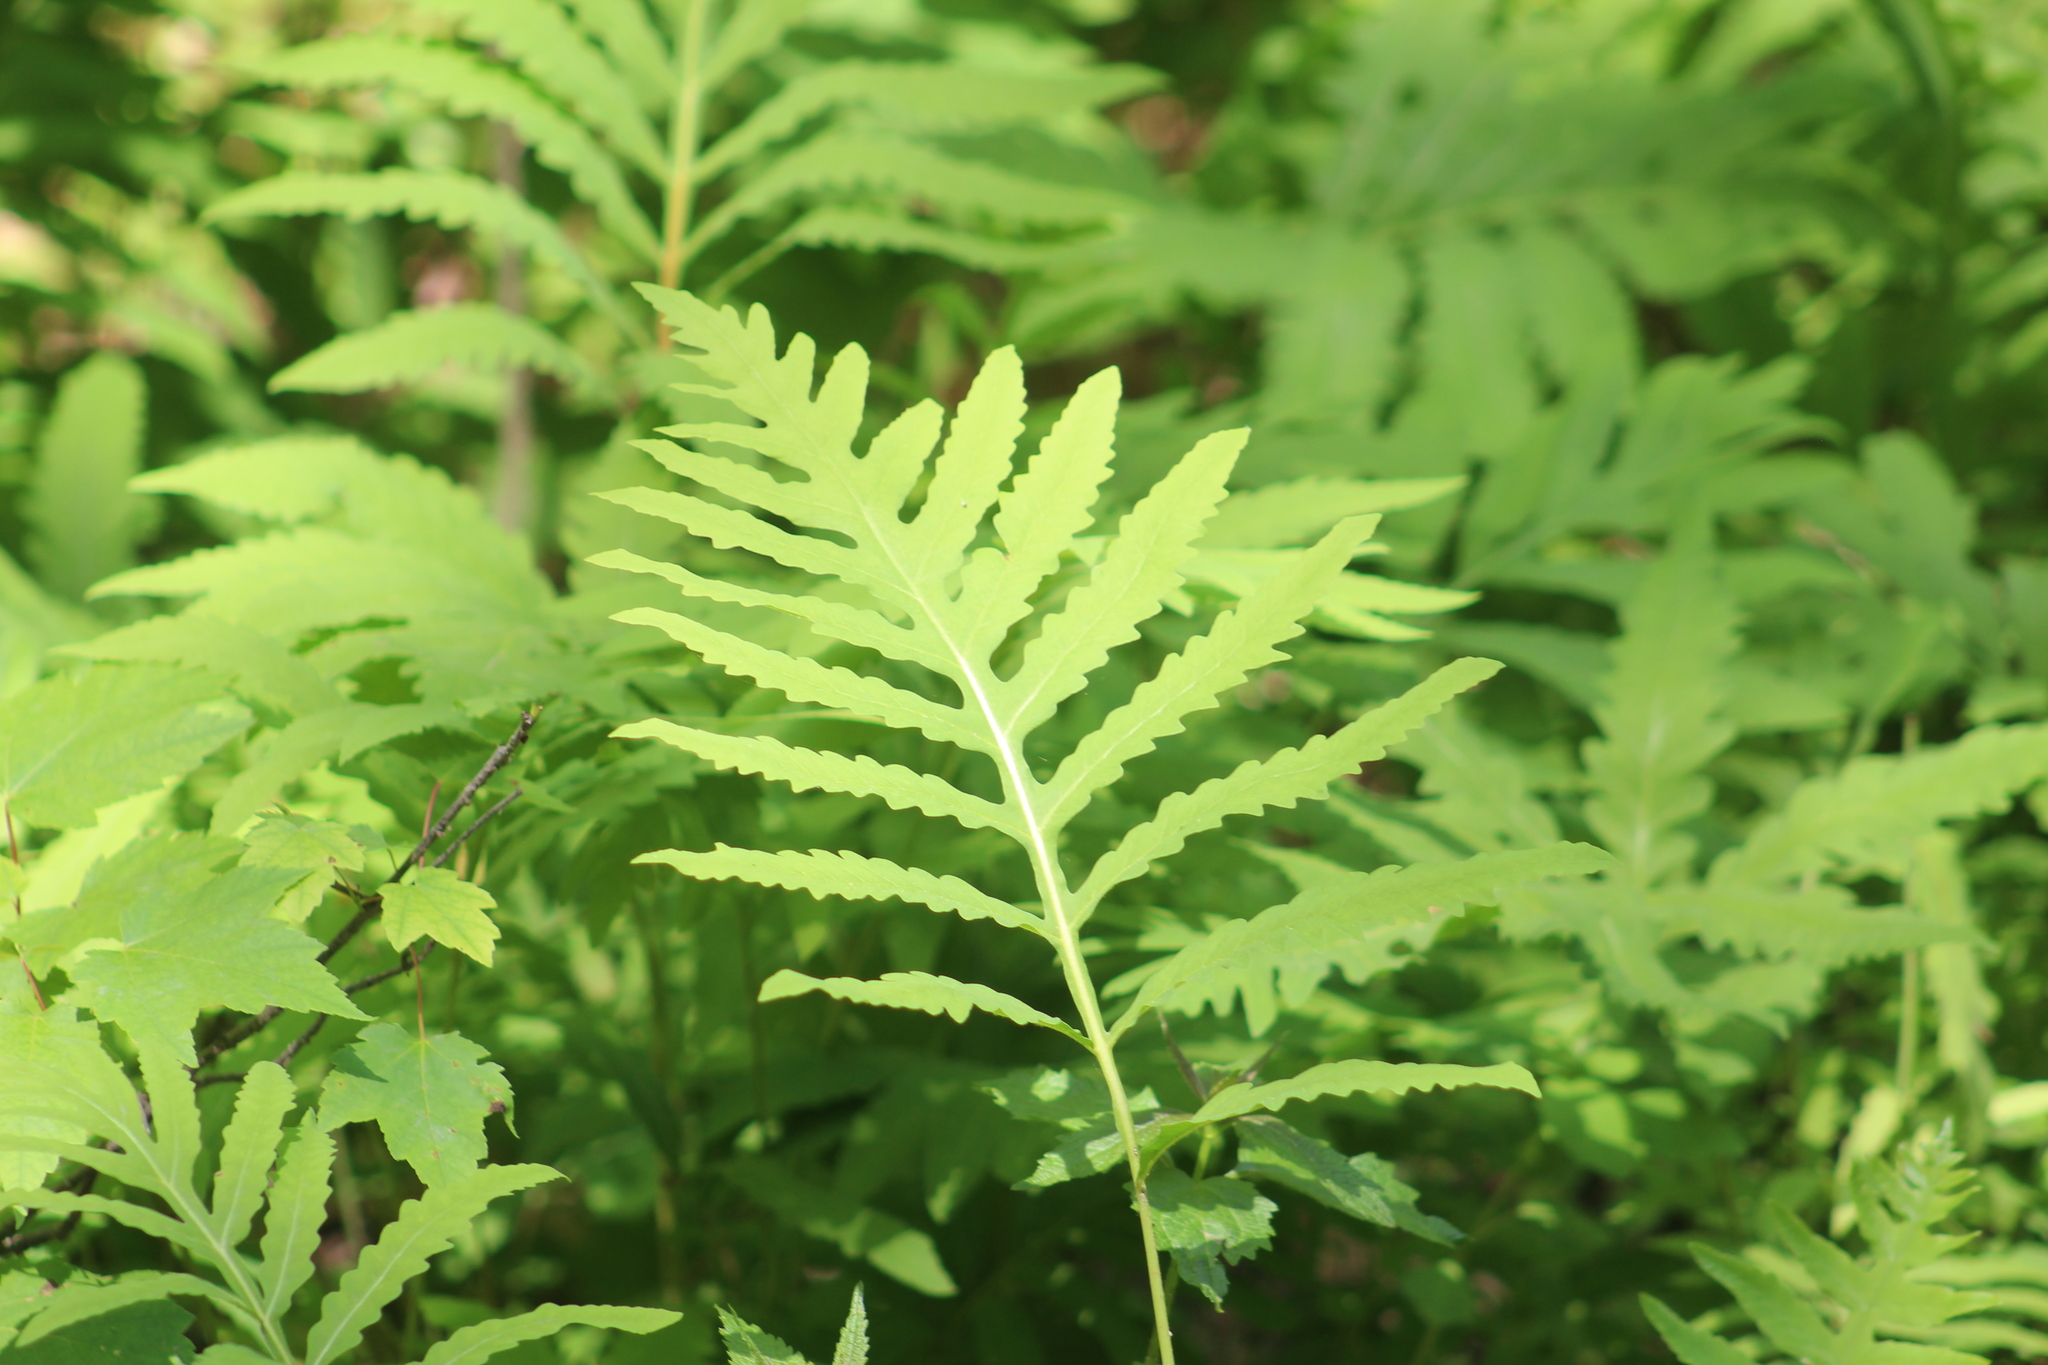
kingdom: Plantae
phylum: Tracheophyta
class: Polypodiopsida
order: Polypodiales
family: Onocleaceae
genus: Onoclea
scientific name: Onoclea sensibilis
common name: Sensitive fern
